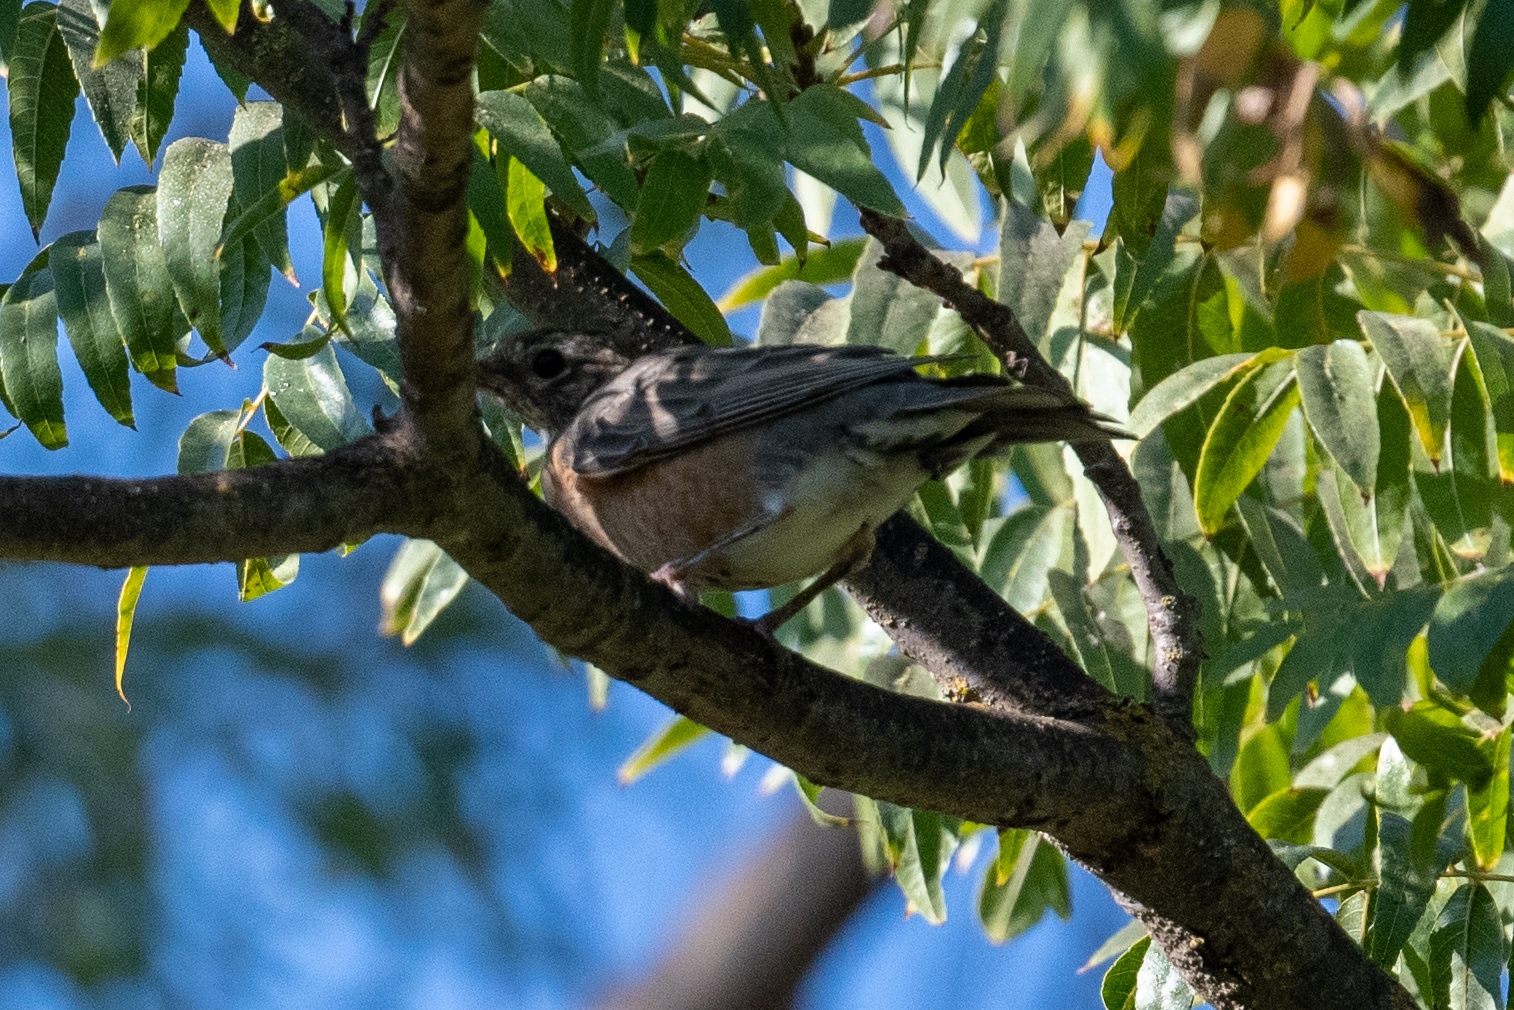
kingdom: Animalia
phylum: Chordata
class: Aves
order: Passeriformes
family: Turdidae
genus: Turdus
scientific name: Turdus migratorius
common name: American robin
